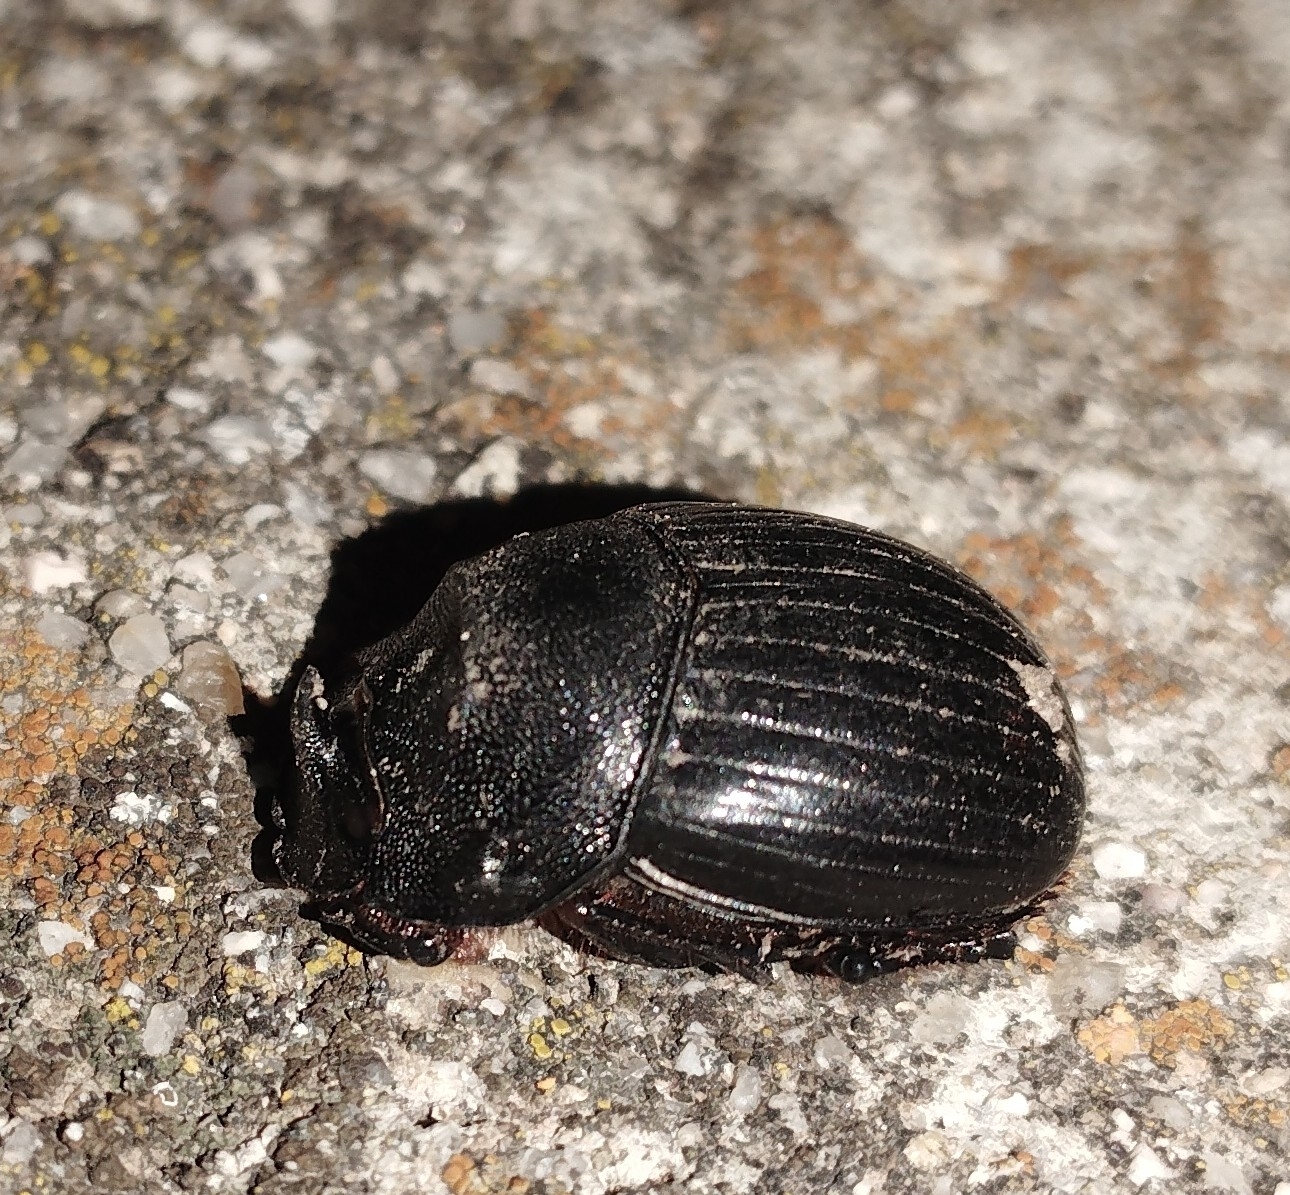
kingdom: Animalia
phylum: Arthropoda
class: Insecta
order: Coleoptera
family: Scarabaeidae
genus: Copris
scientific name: Copris hispanus
